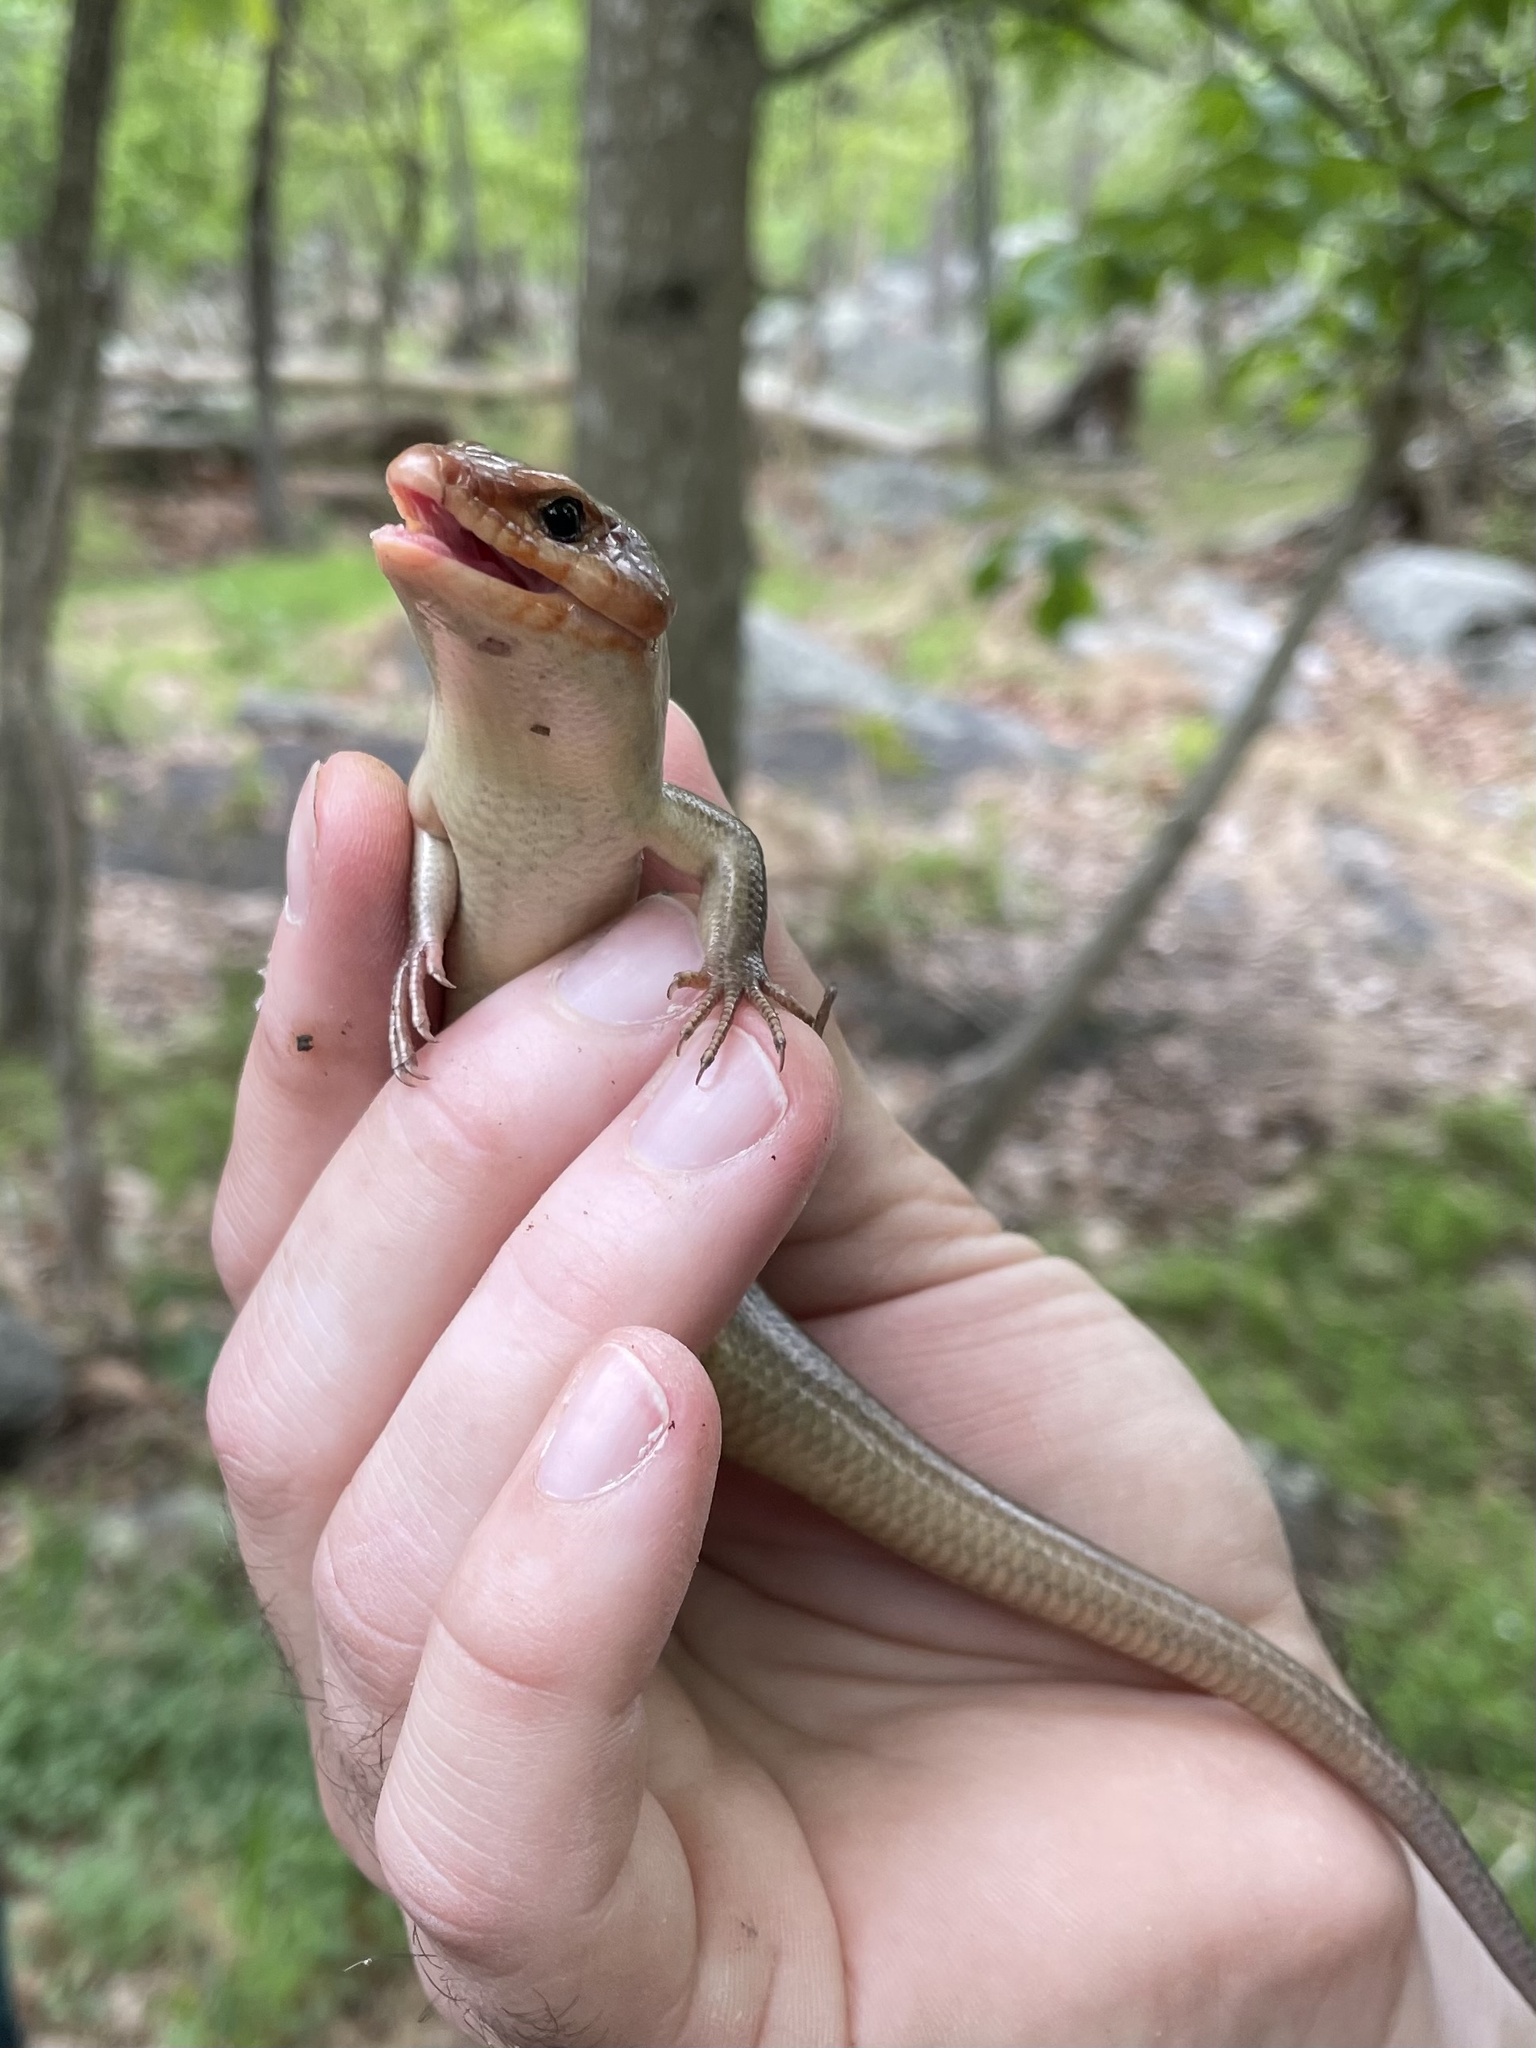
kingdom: Animalia
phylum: Chordata
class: Squamata
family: Scincidae
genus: Plestiodon
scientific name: Plestiodon laticeps
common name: Broadhead skink
